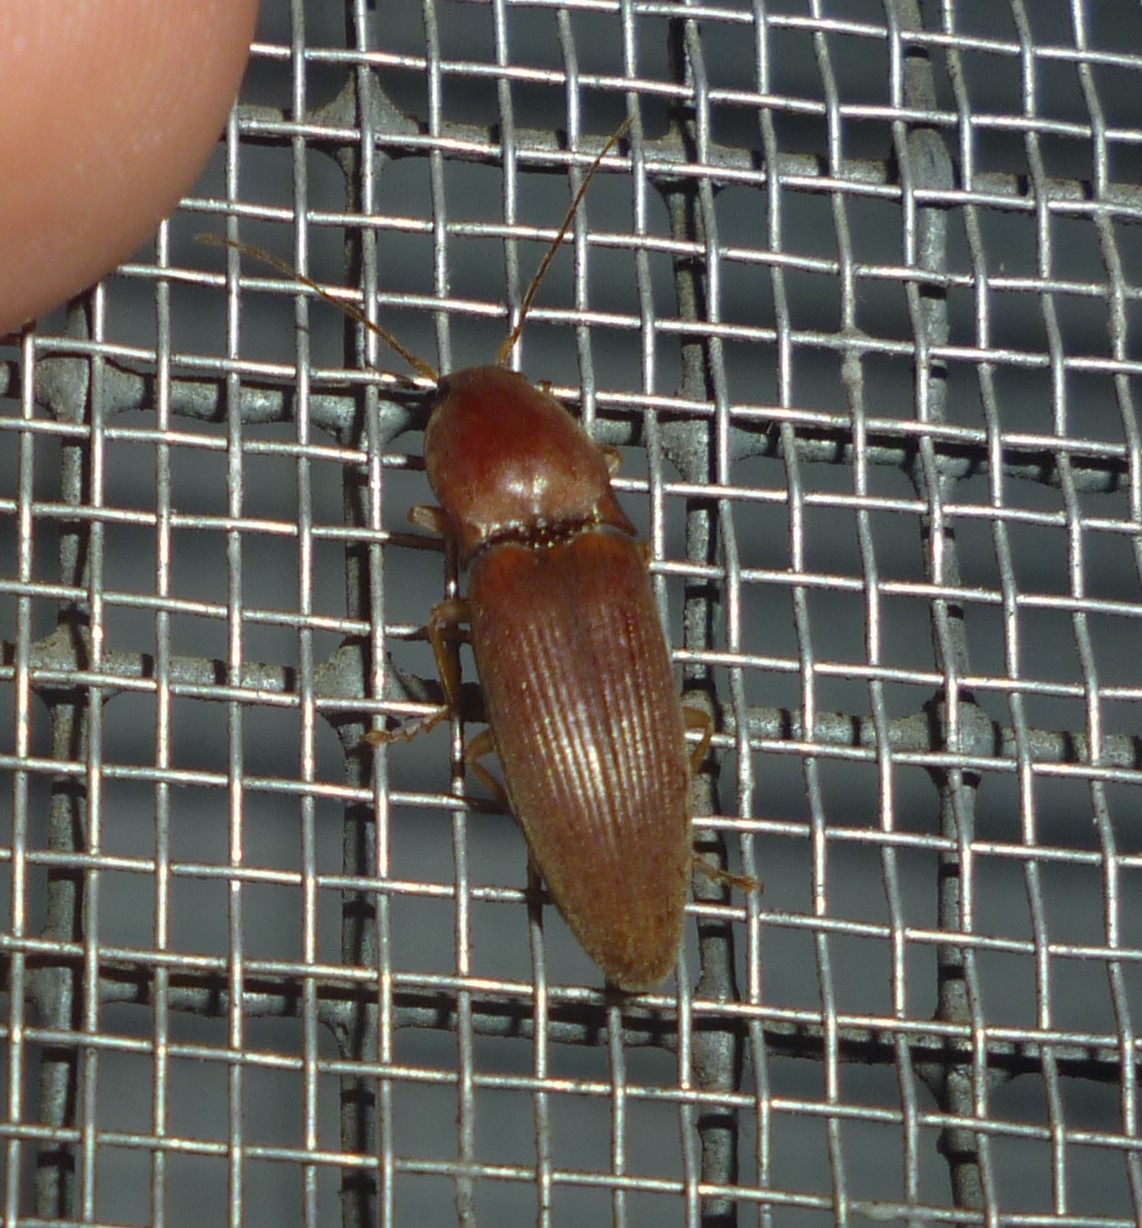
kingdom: Animalia
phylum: Arthropoda
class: Insecta
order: Coleoptera
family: Elateridae
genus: Monocrepidius
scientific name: Monocrepidius lividus
